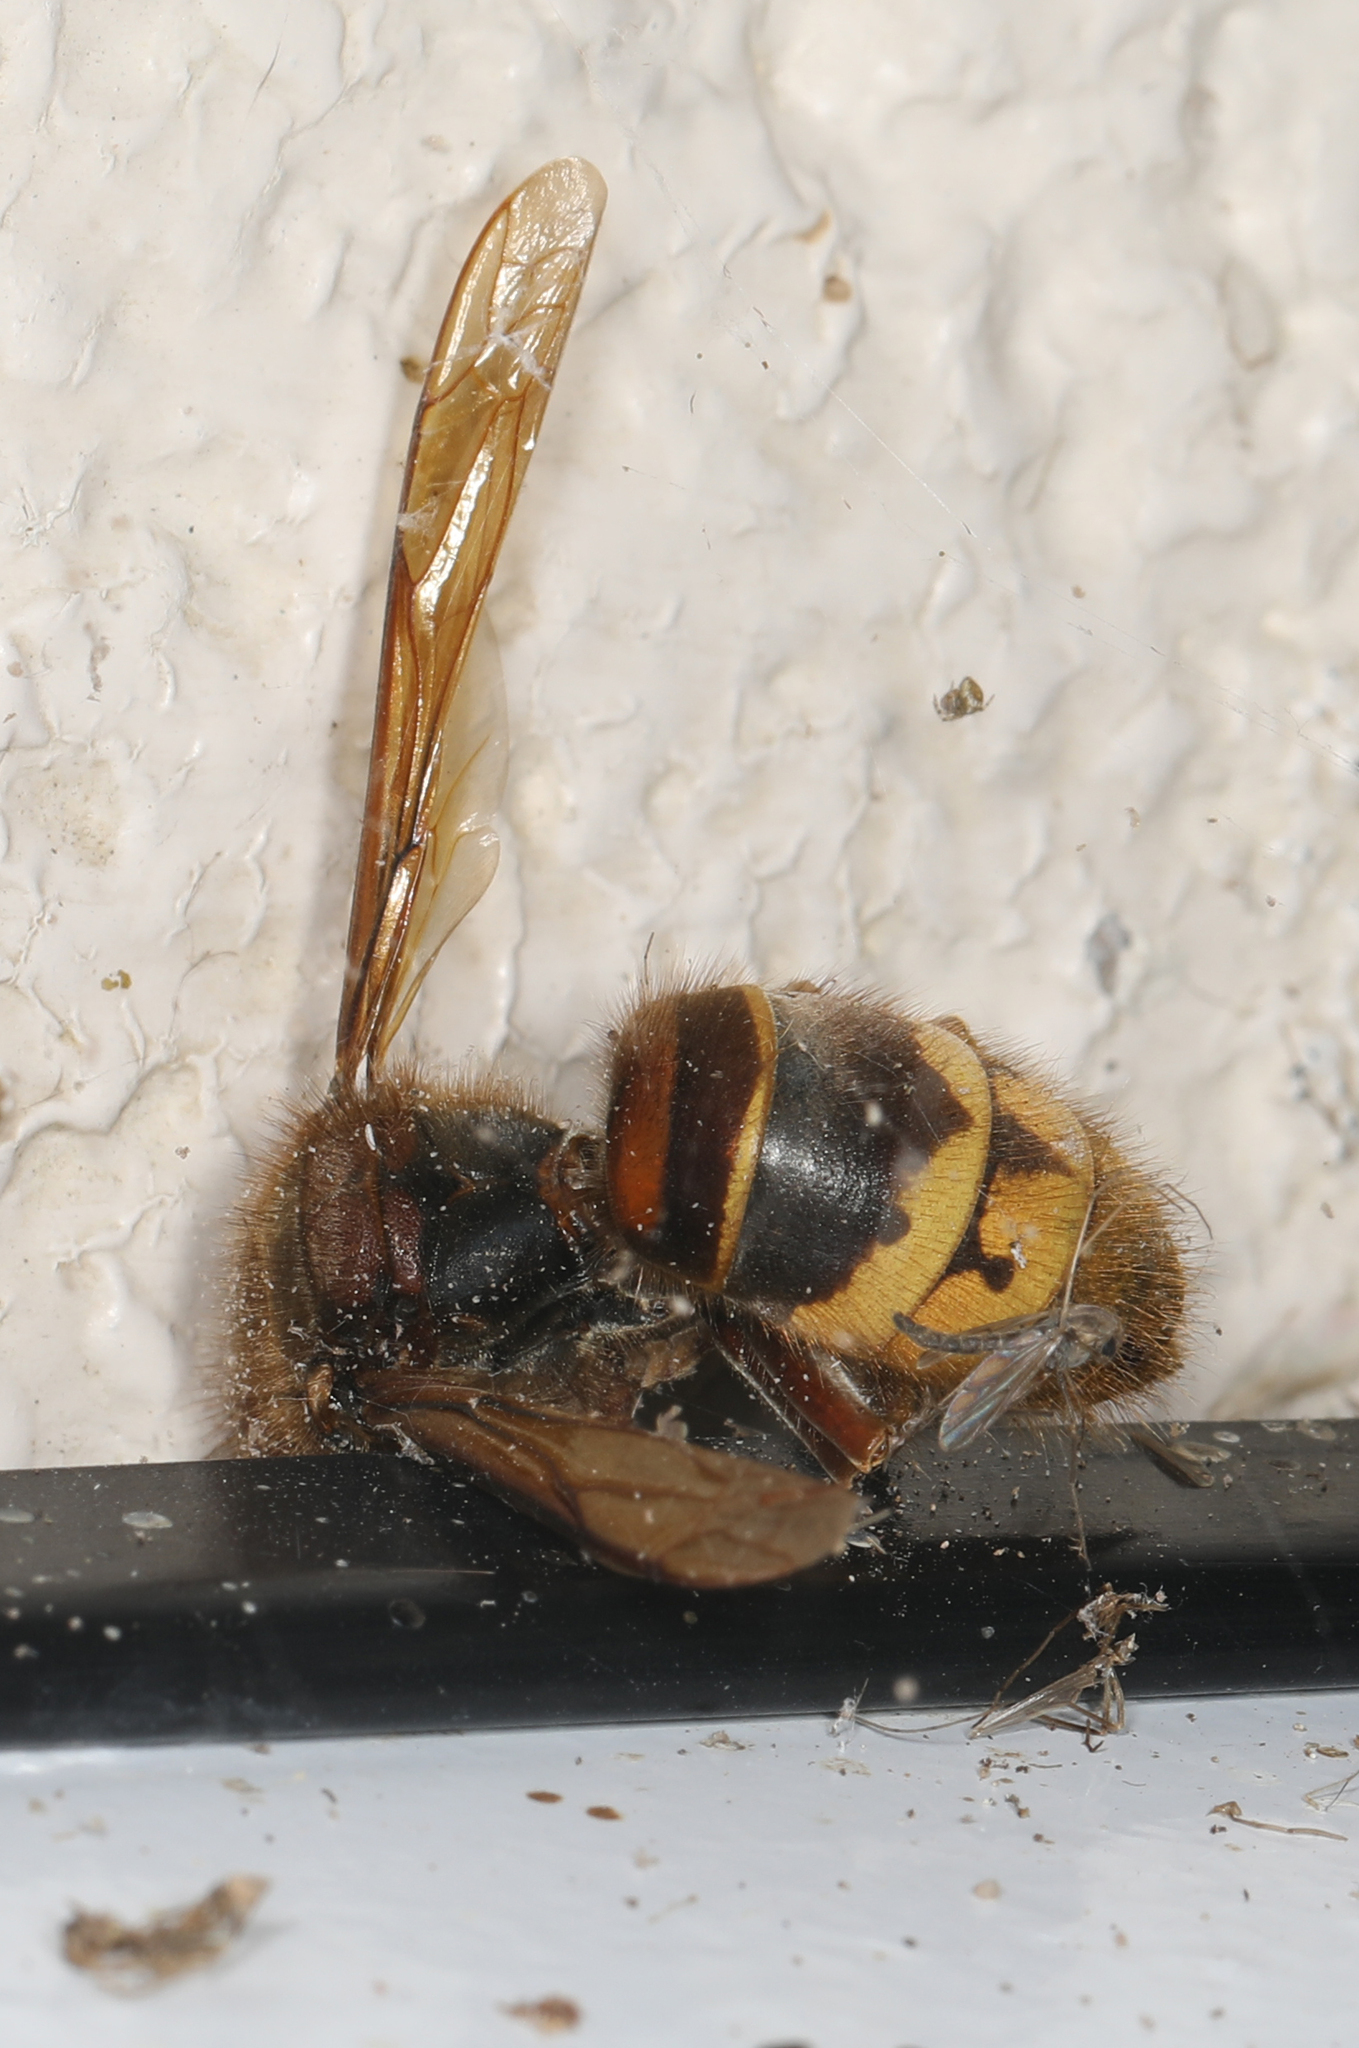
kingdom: Animalia
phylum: Arthropoda
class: Insecta
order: Hymenoptera
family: Vespidae
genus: Vespa
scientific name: Vespa crabro
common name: Hornet
